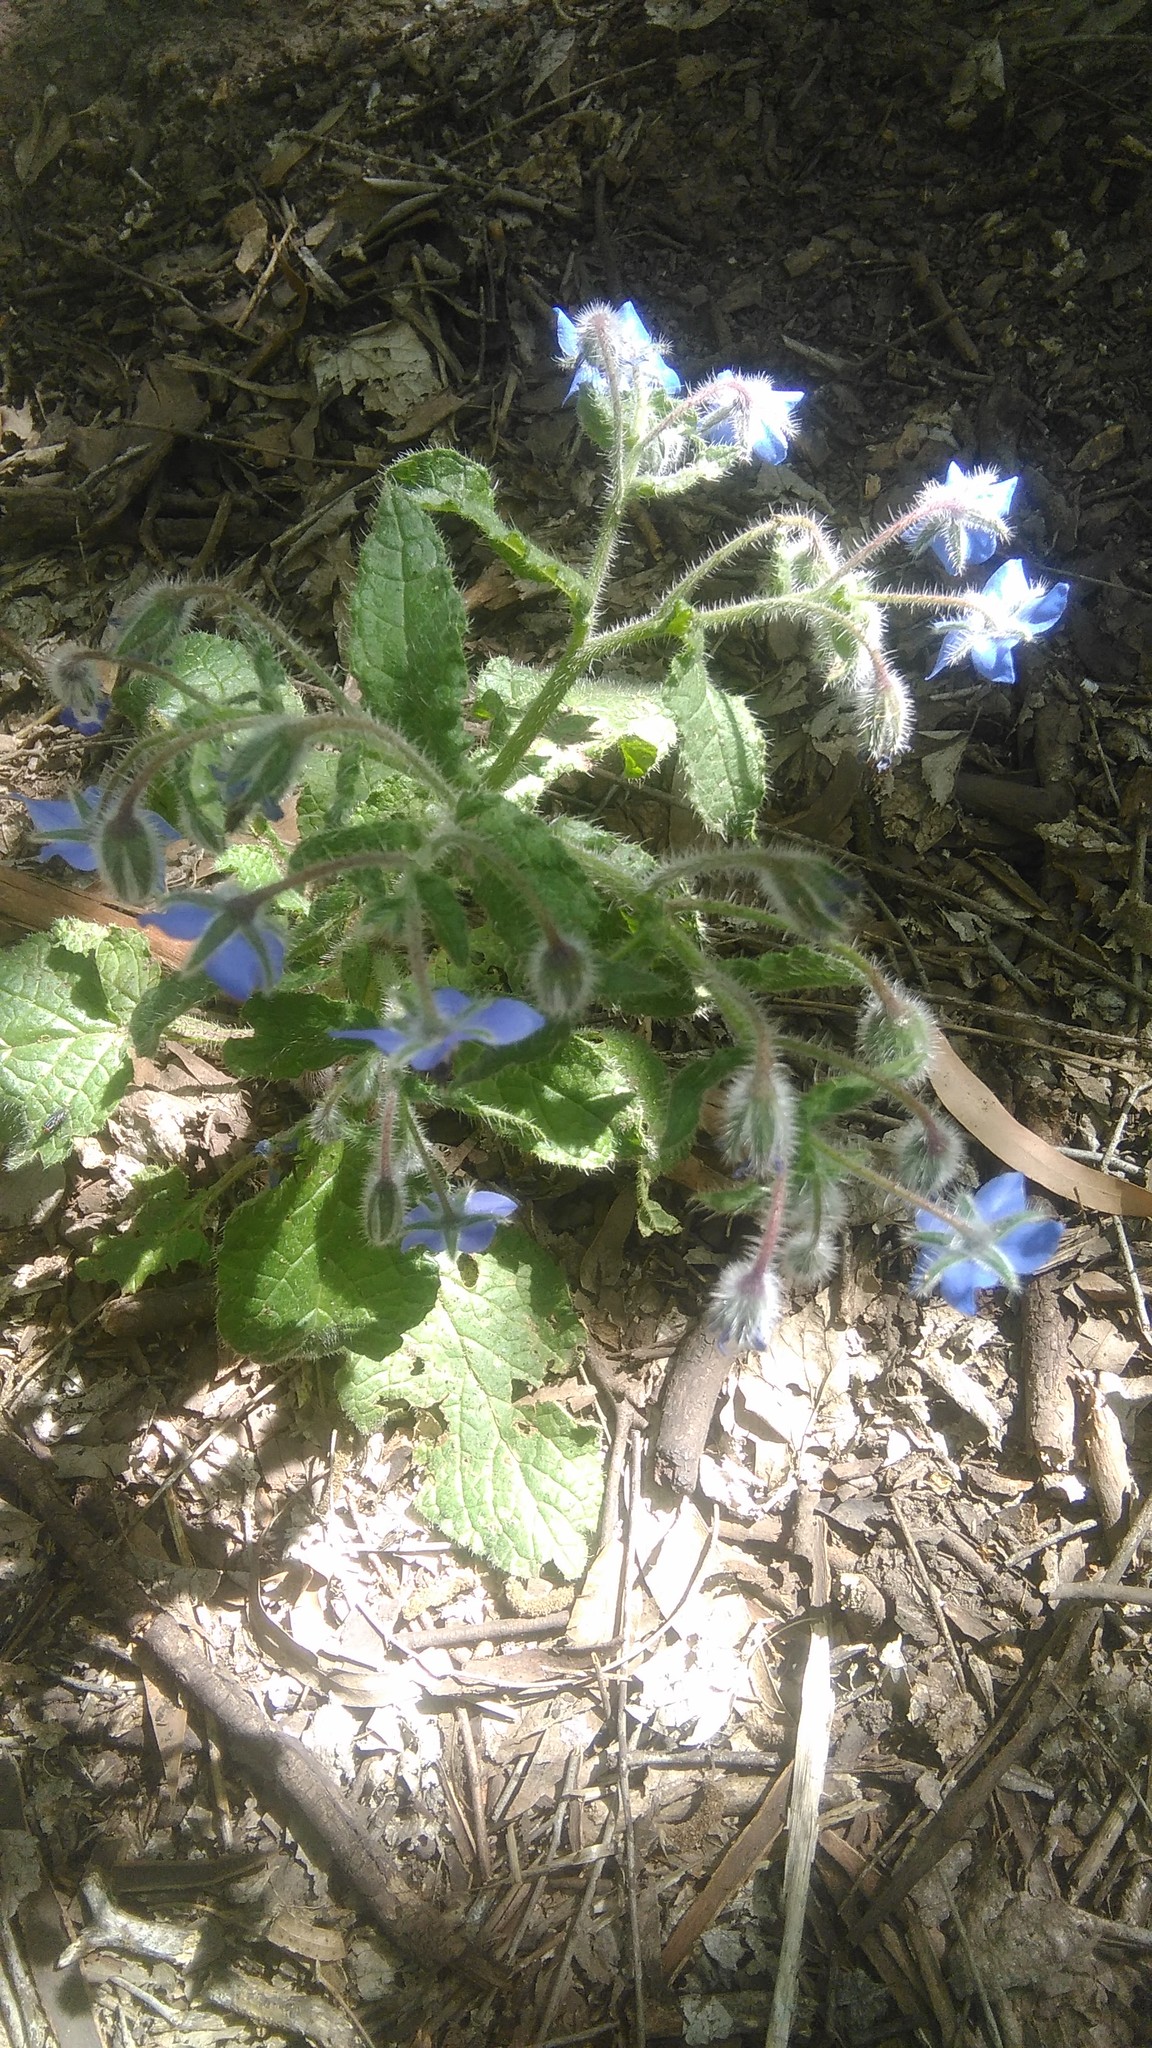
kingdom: Plantae
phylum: Tracheophyta
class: Magnoliopsida
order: Boraginales
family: Boraginaceae
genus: Borago
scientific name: Borago officinalis
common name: Borage
